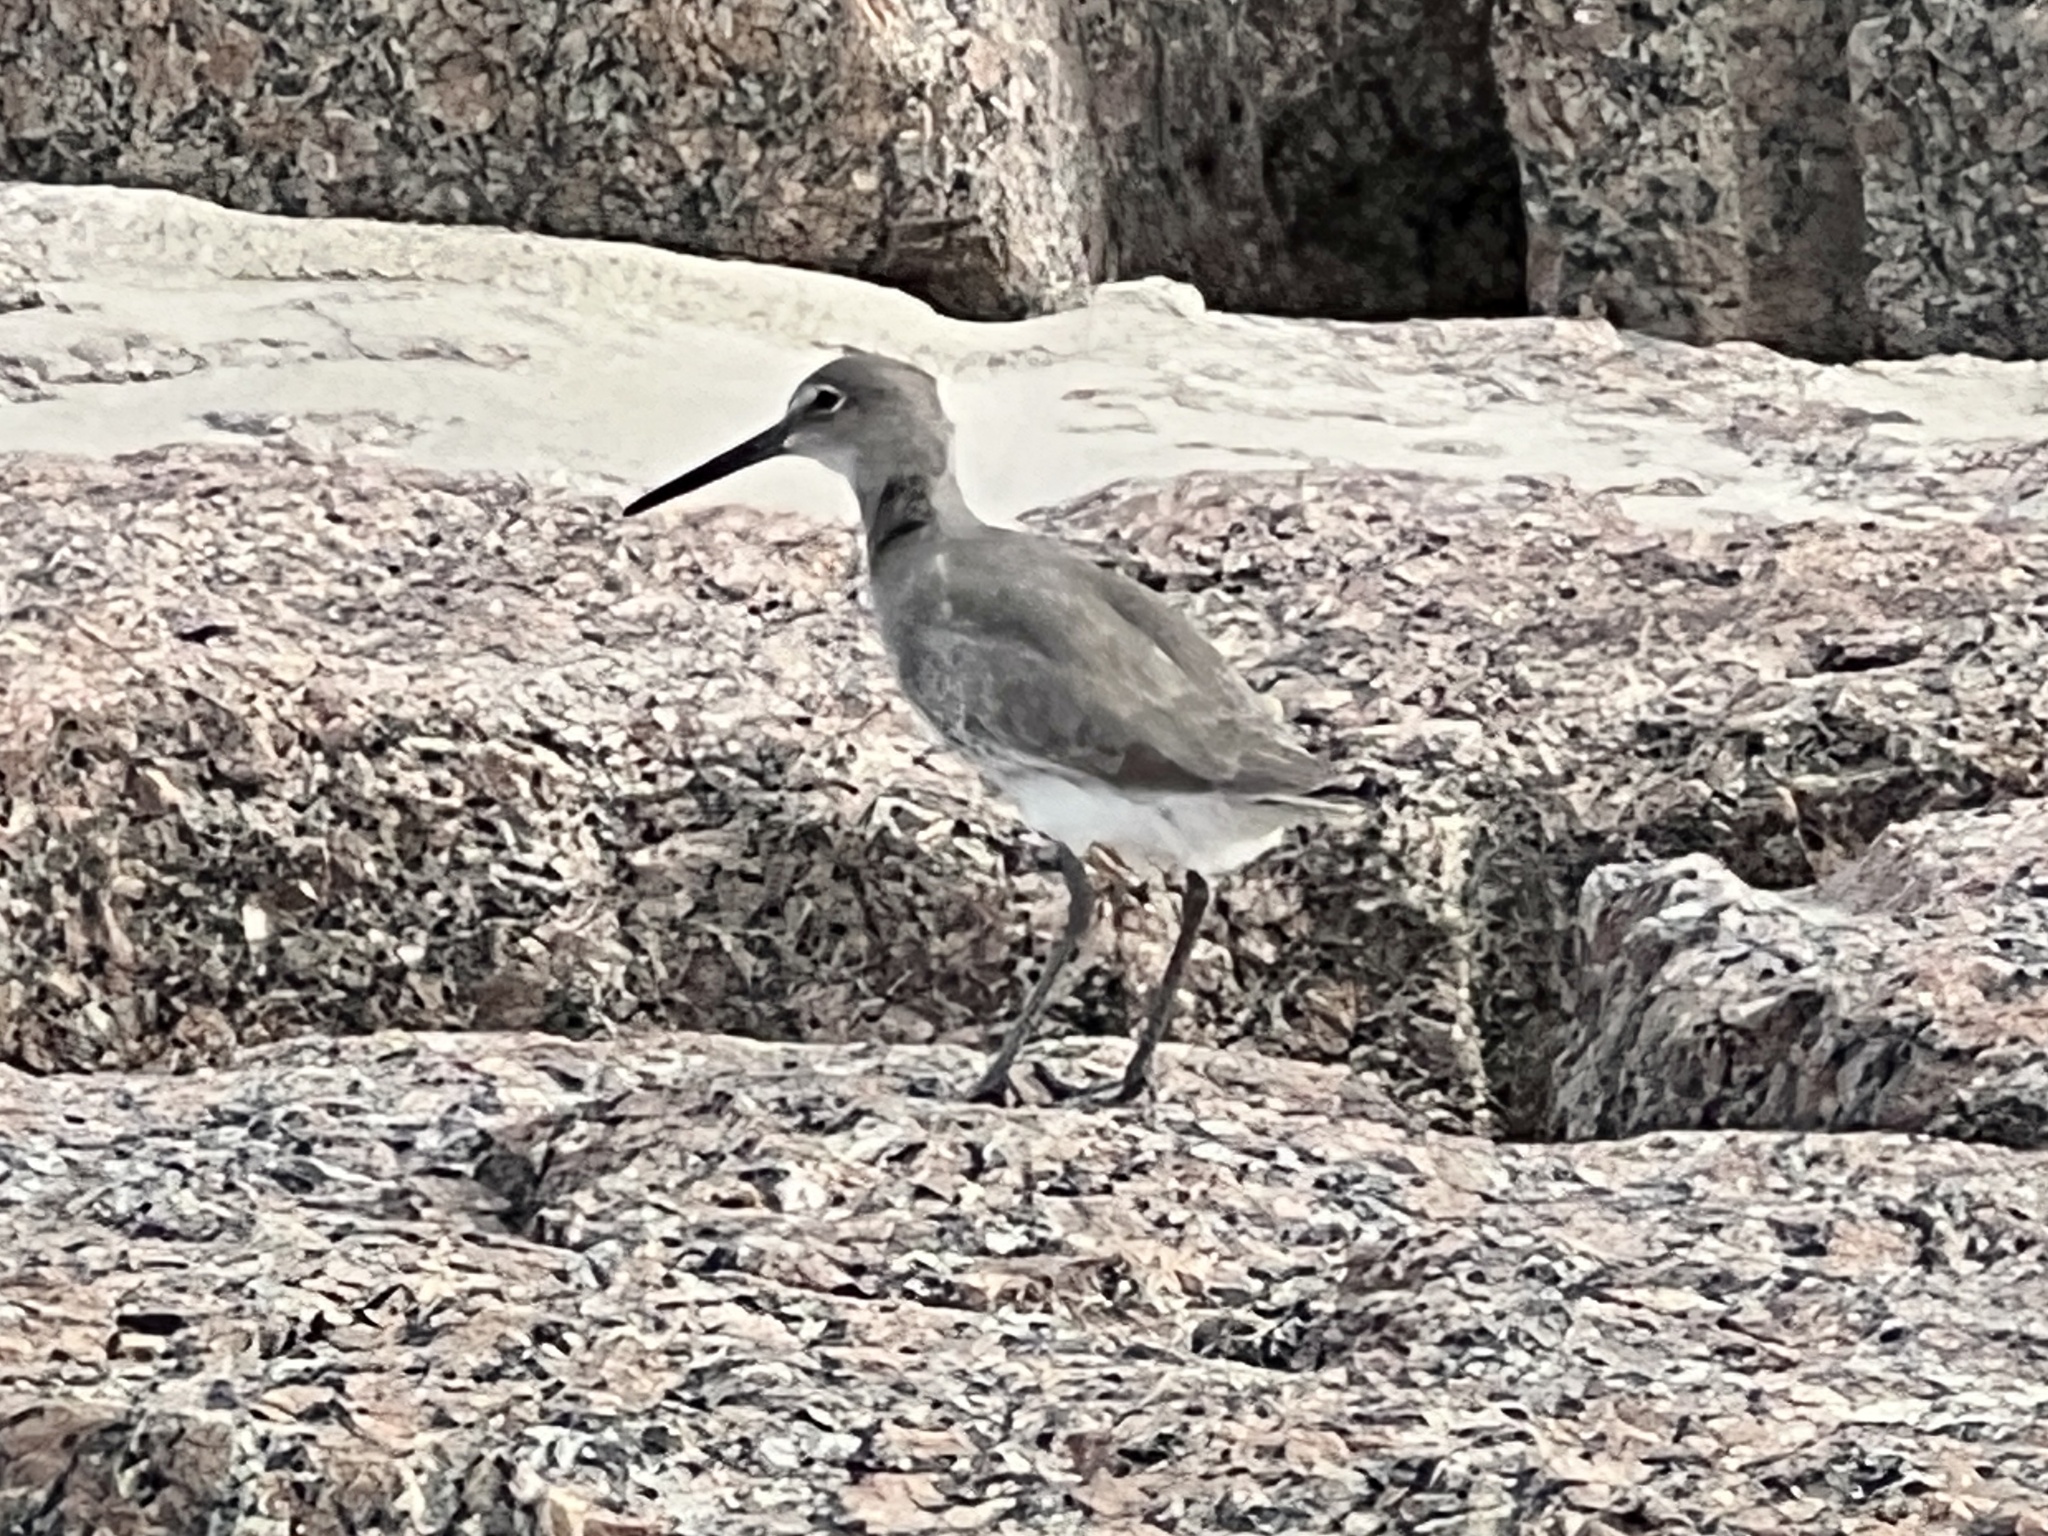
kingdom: Animalia
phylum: Chordata
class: Aves
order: Charadriiformes
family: Scolopacidae
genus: Tringa
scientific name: Tringa semipalmata
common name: Willet
